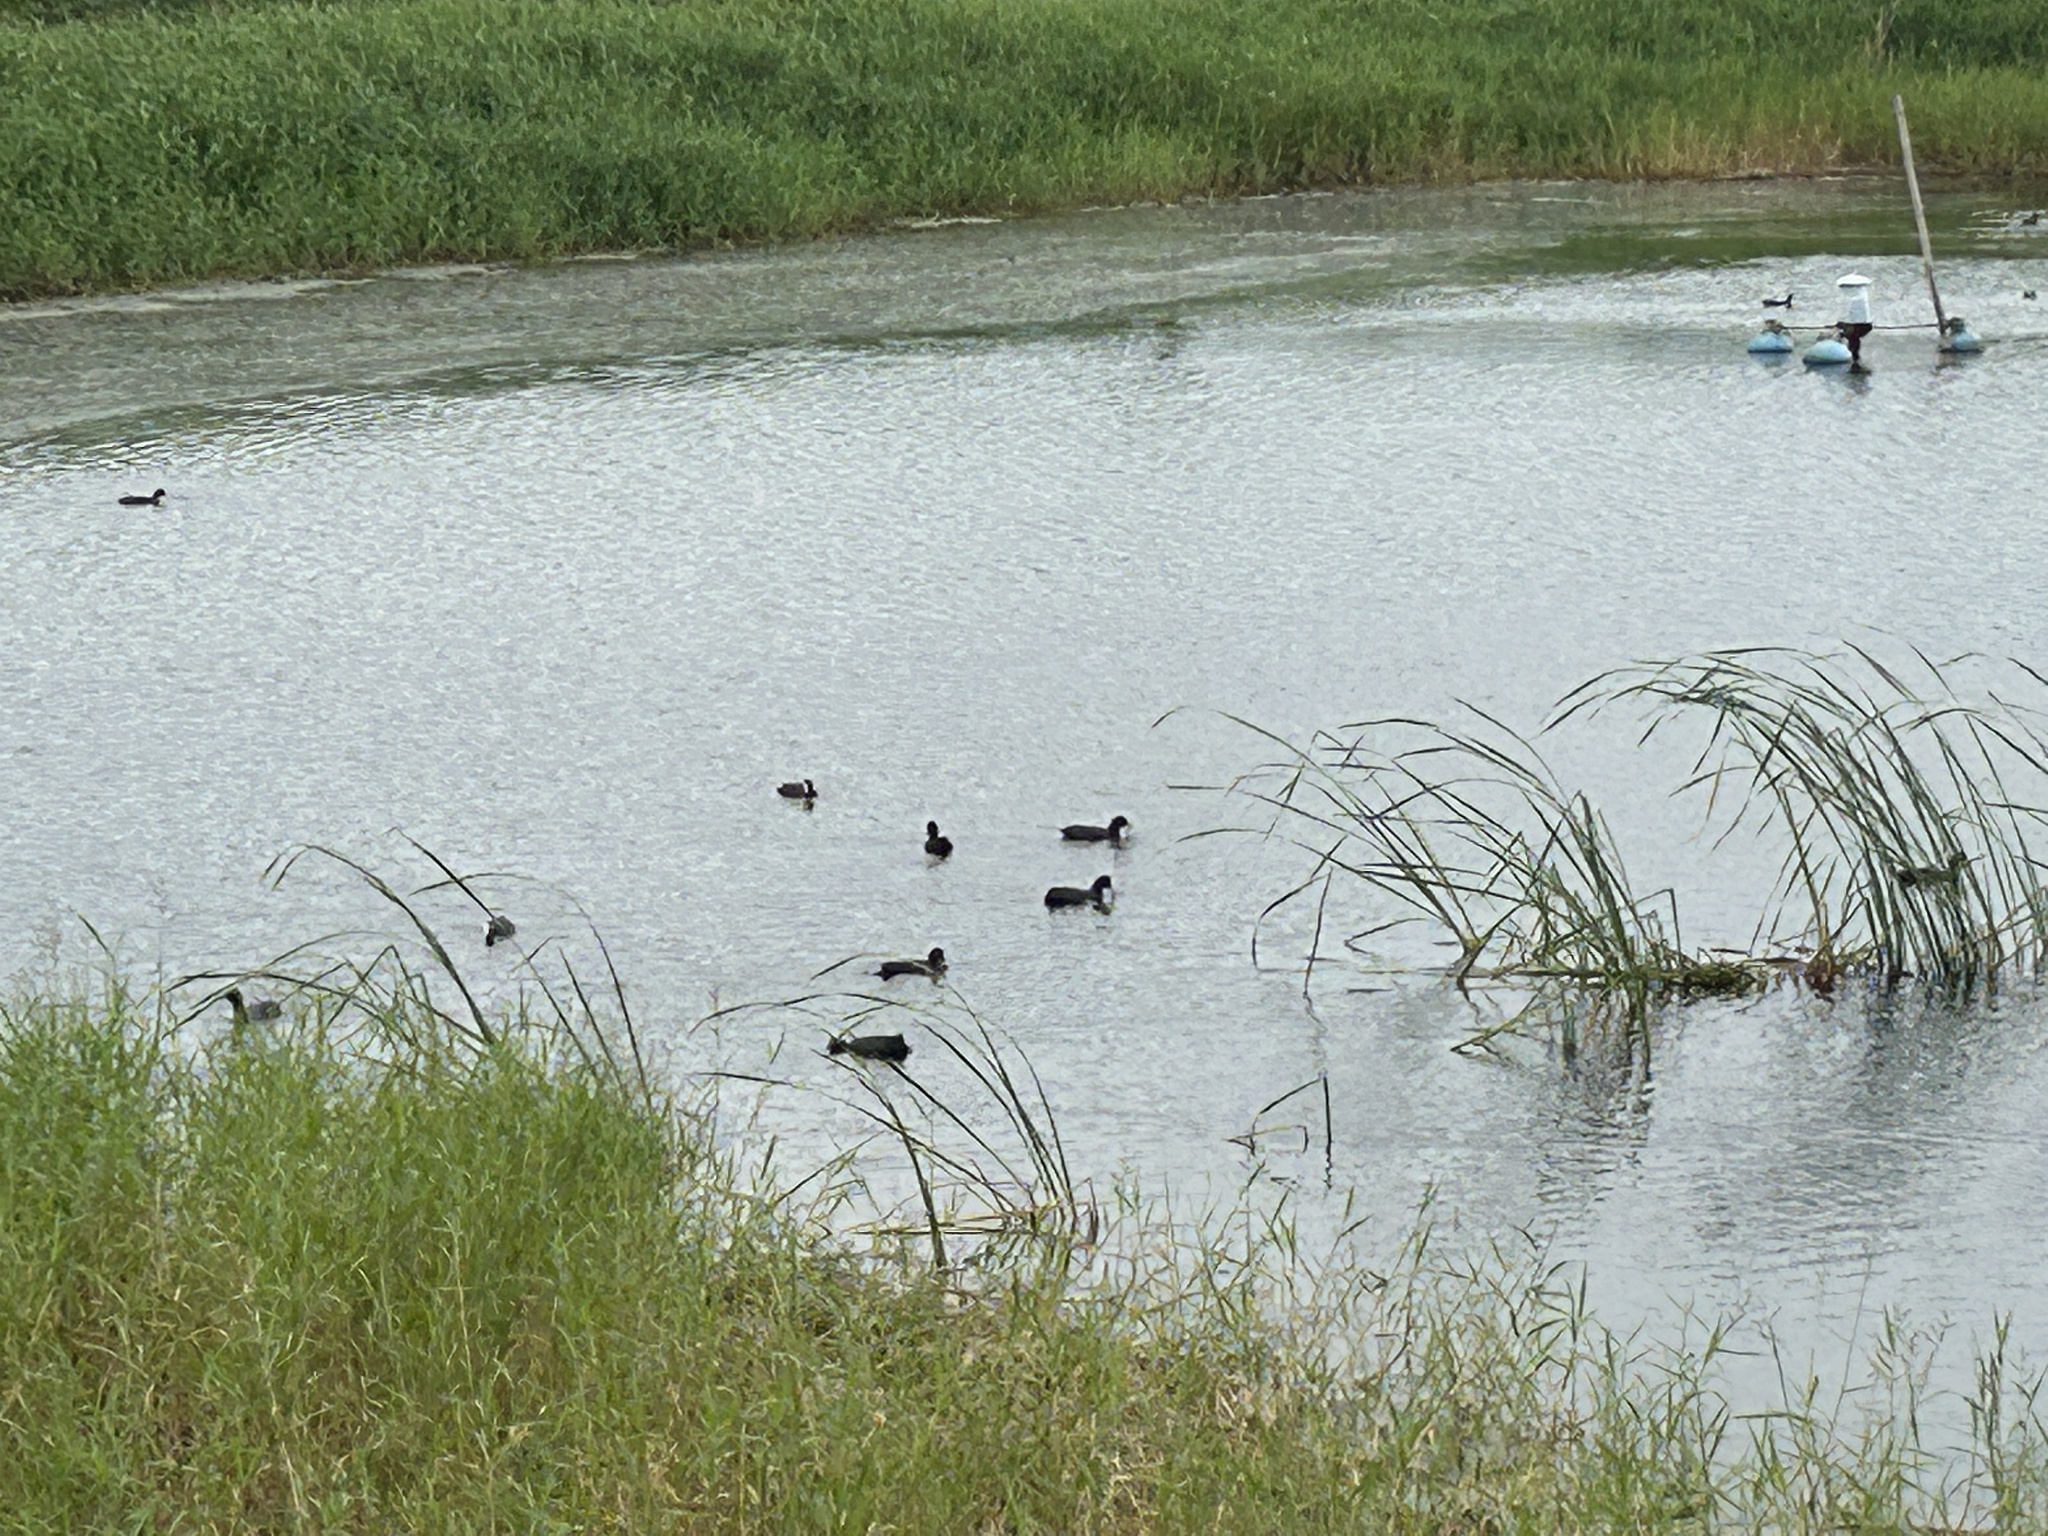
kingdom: Animalia
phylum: Chordata
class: Aves
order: Gruiformes
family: Rallidae
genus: Fulica
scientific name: Fulica atra
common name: Eurasian coot
